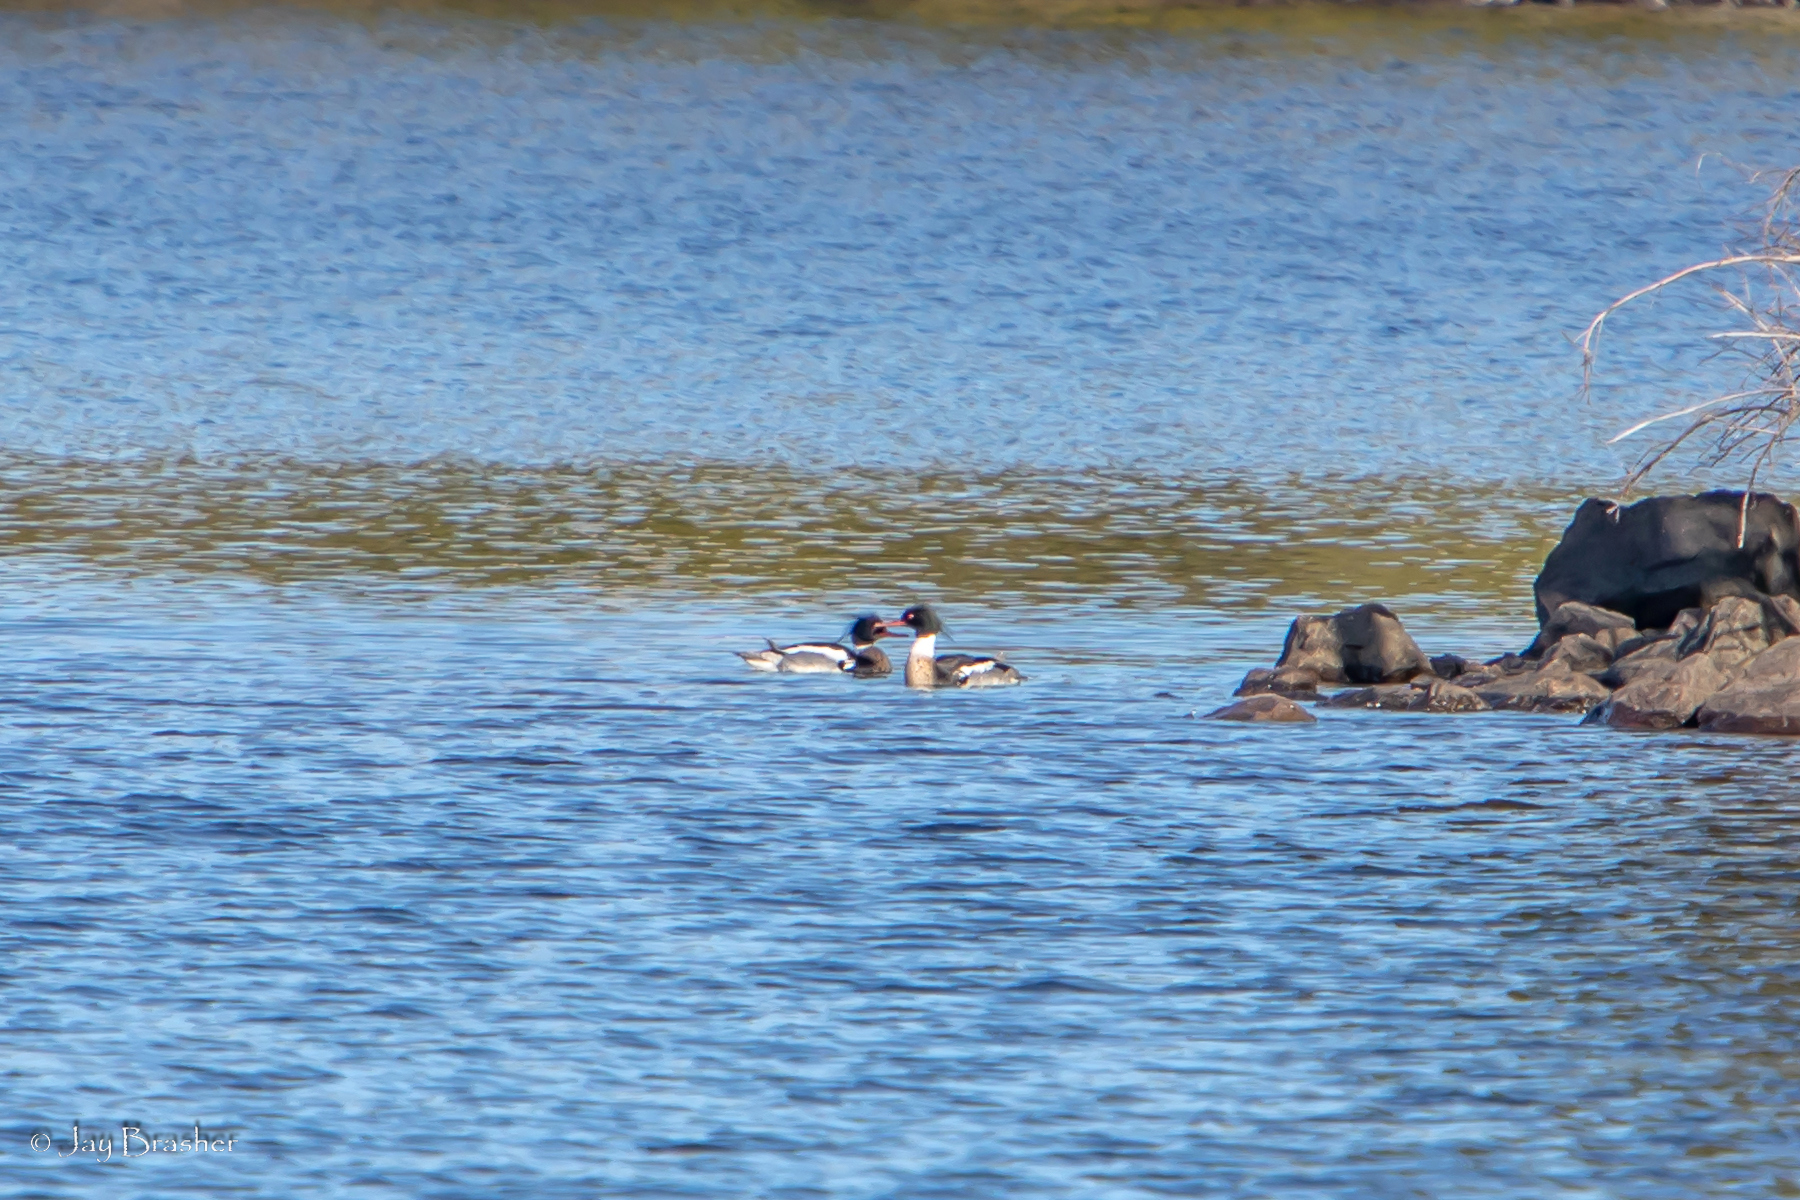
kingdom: Animalia
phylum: Chordata
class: Aves
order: Anseriformes
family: Anatidae
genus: Mergus
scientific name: Mergus serrator
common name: Red-breasted merganser
